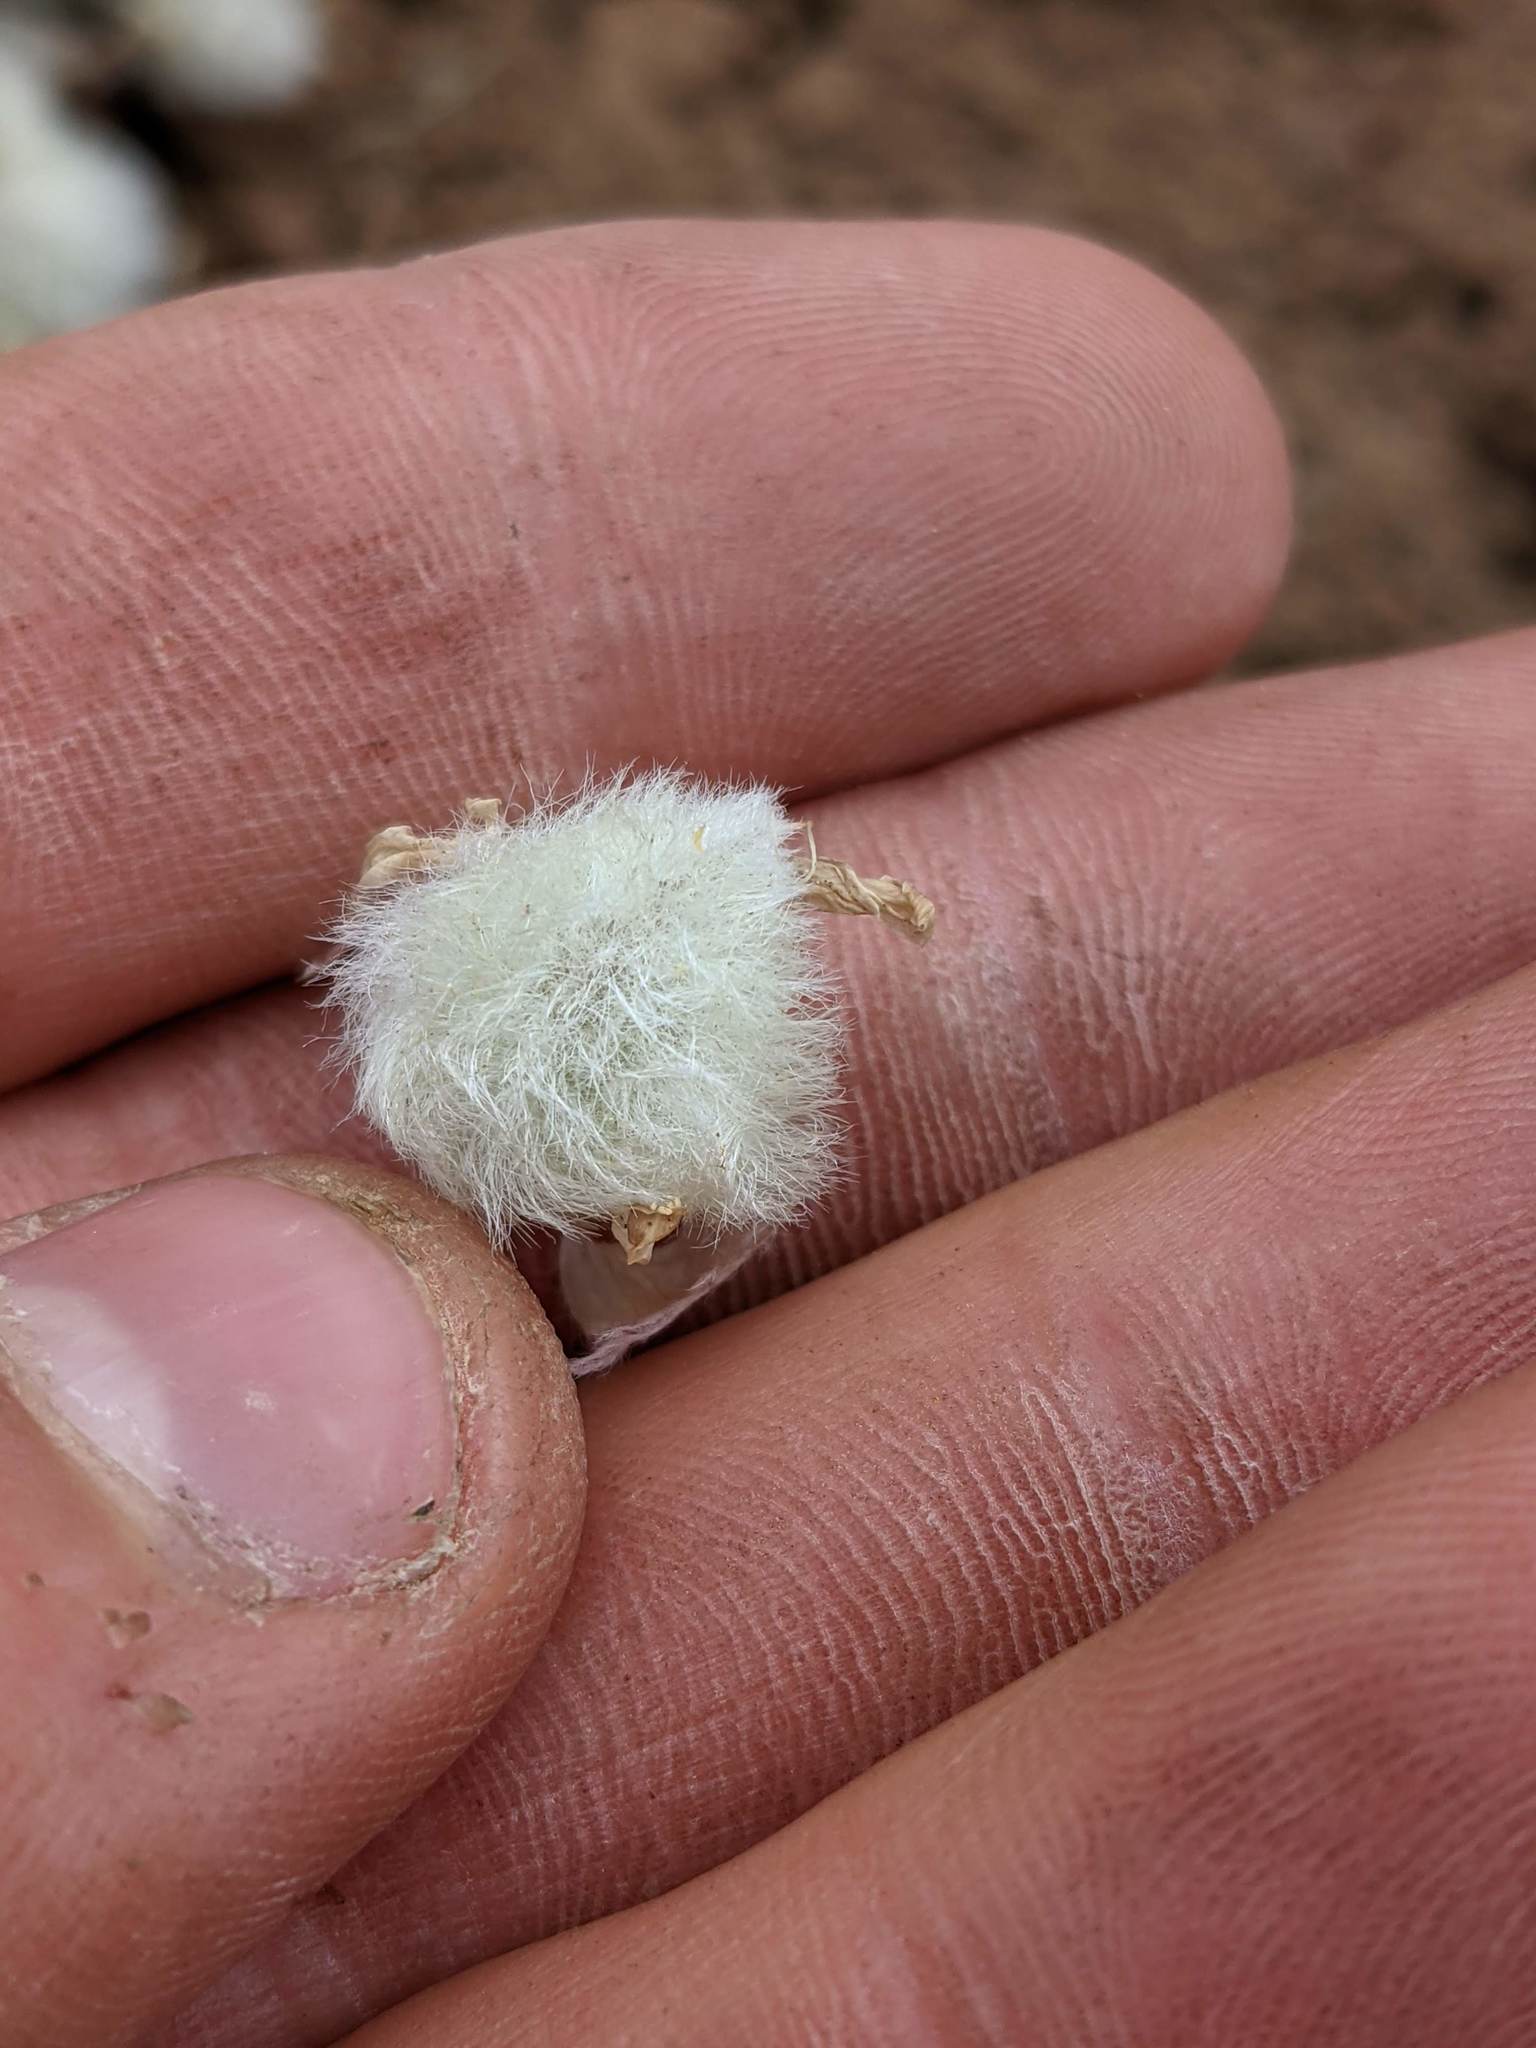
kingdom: Plantae
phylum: Tracheophyta
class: Magnoliopsida
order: Fabales
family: Fabaceae
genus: Astragalus
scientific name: Astragalus purshii
